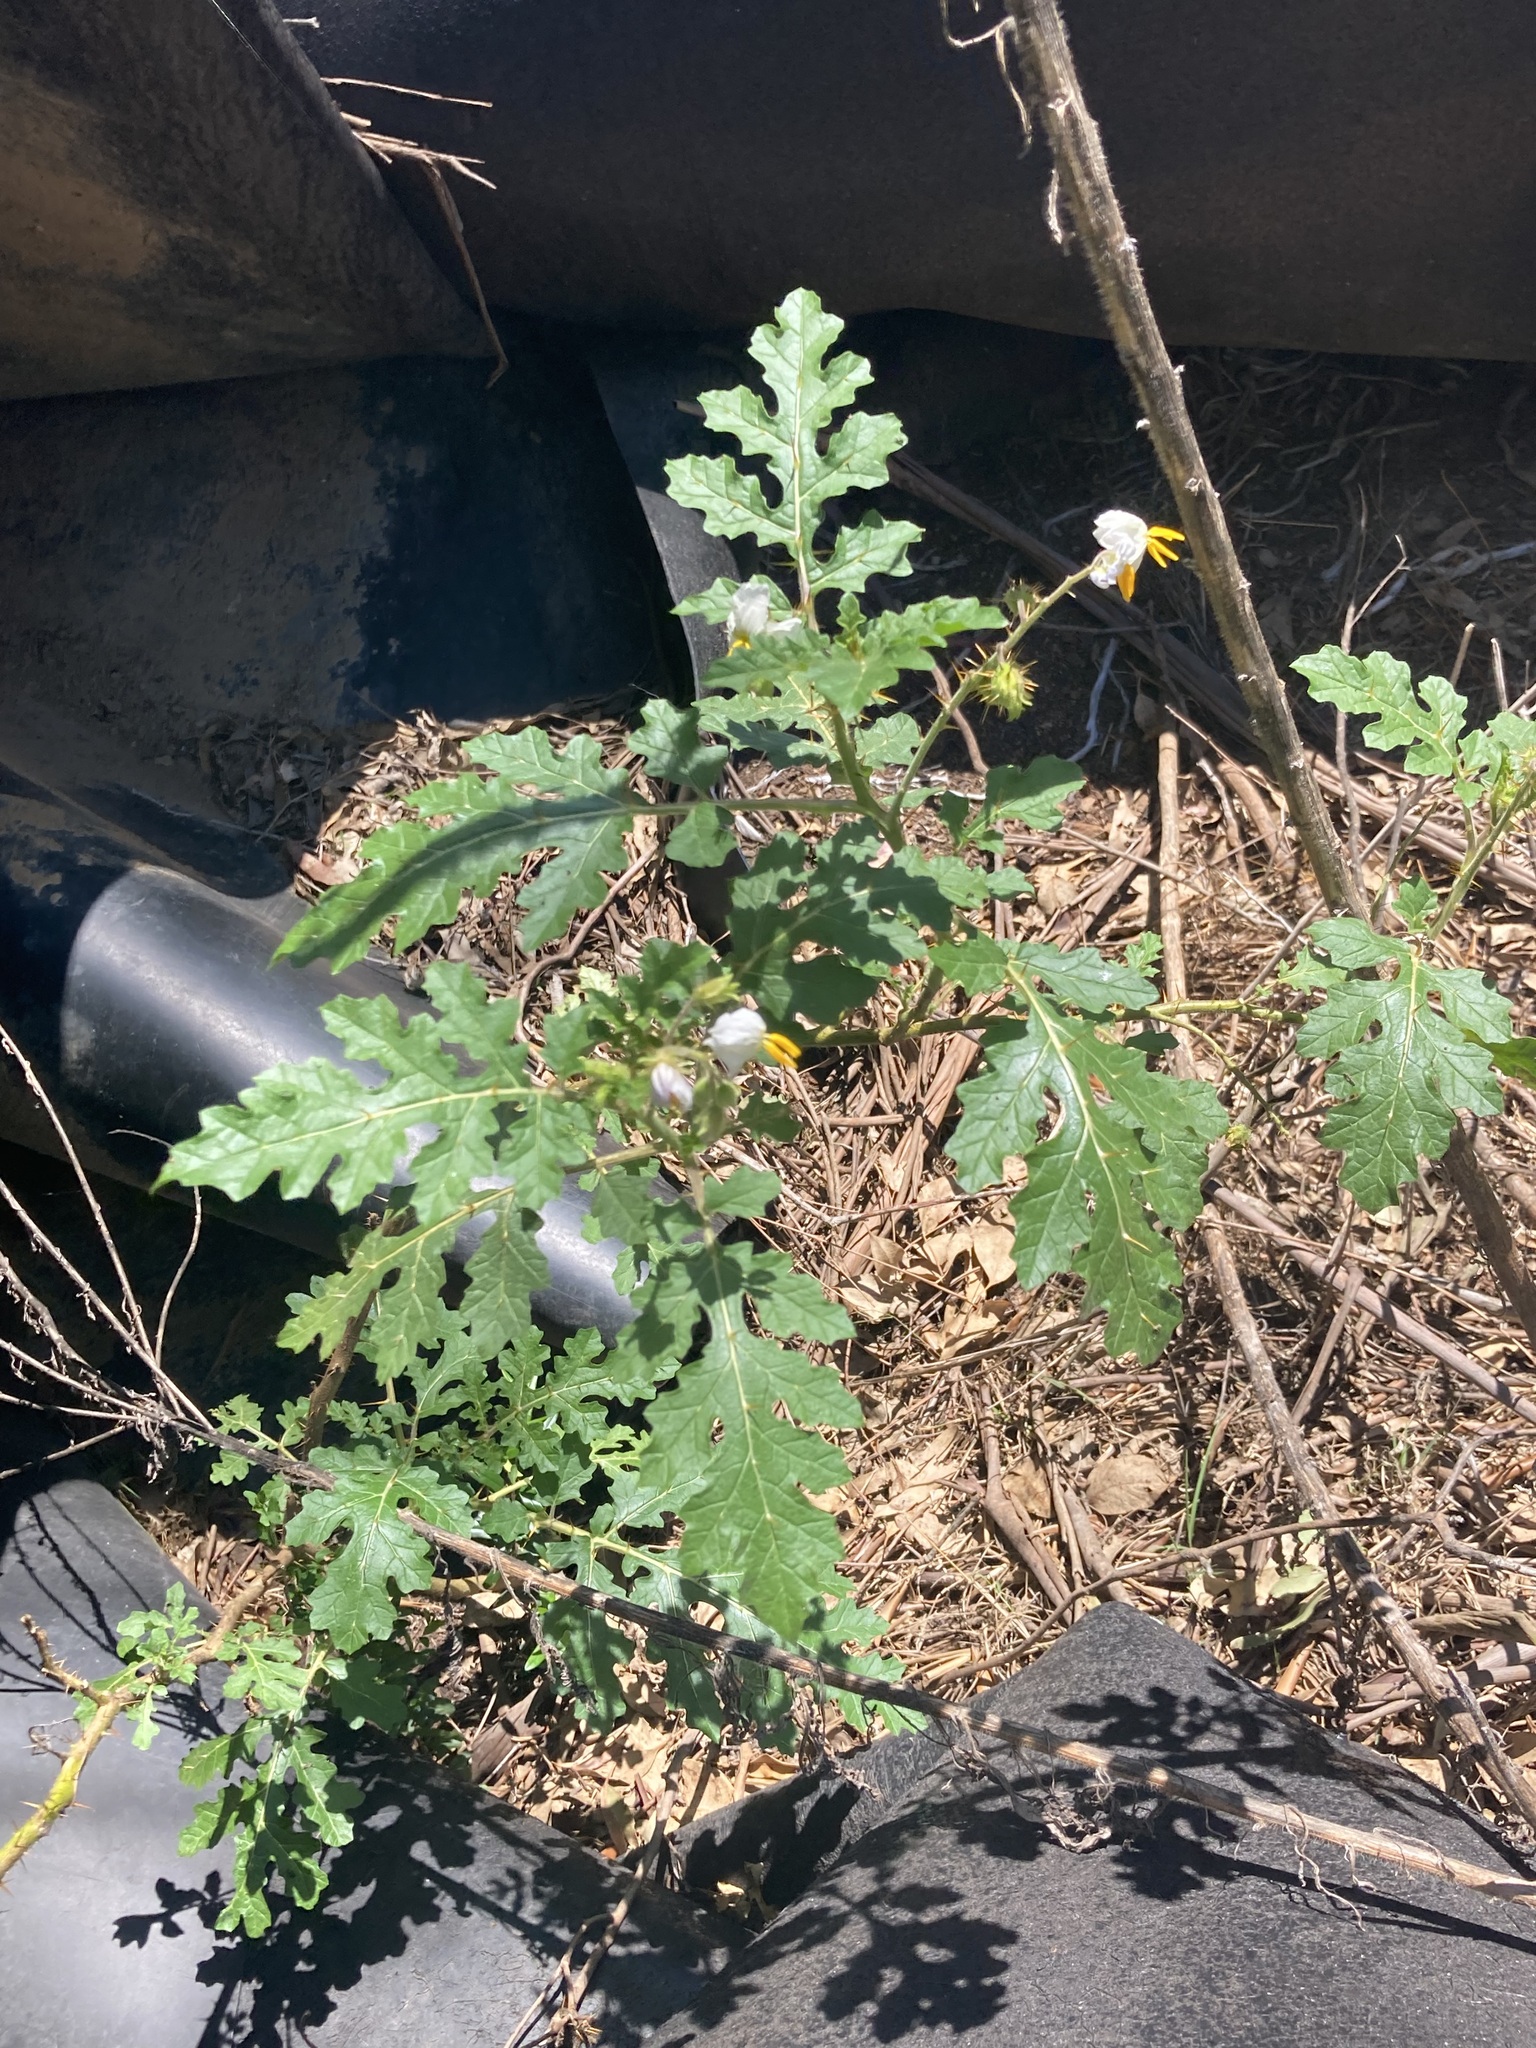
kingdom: Plantae
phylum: Tracheophyta
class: Magnoliopsida
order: Solanales
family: Solanaceae
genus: Solanum
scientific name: Solanum sisymbriifolium
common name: Red buffalo-bur
